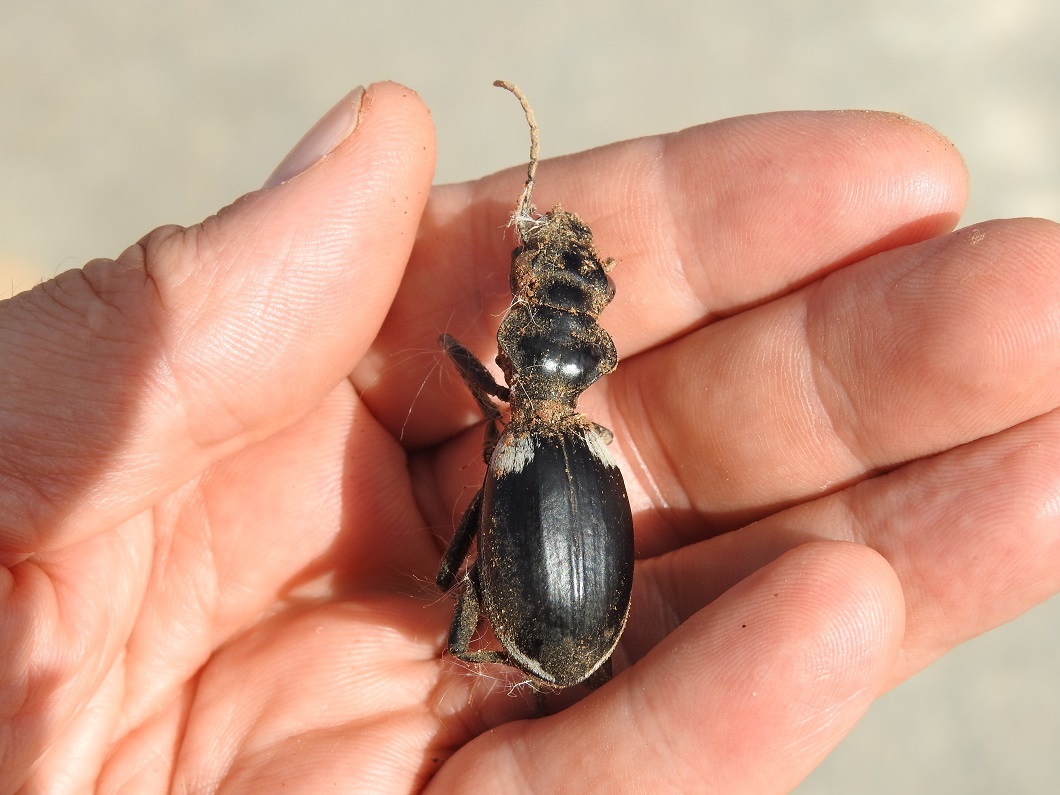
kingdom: Animalia
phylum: Arthropoda
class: Insecta
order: Coleoptera
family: Carabidae
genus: Anthia
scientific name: Anthia venator
